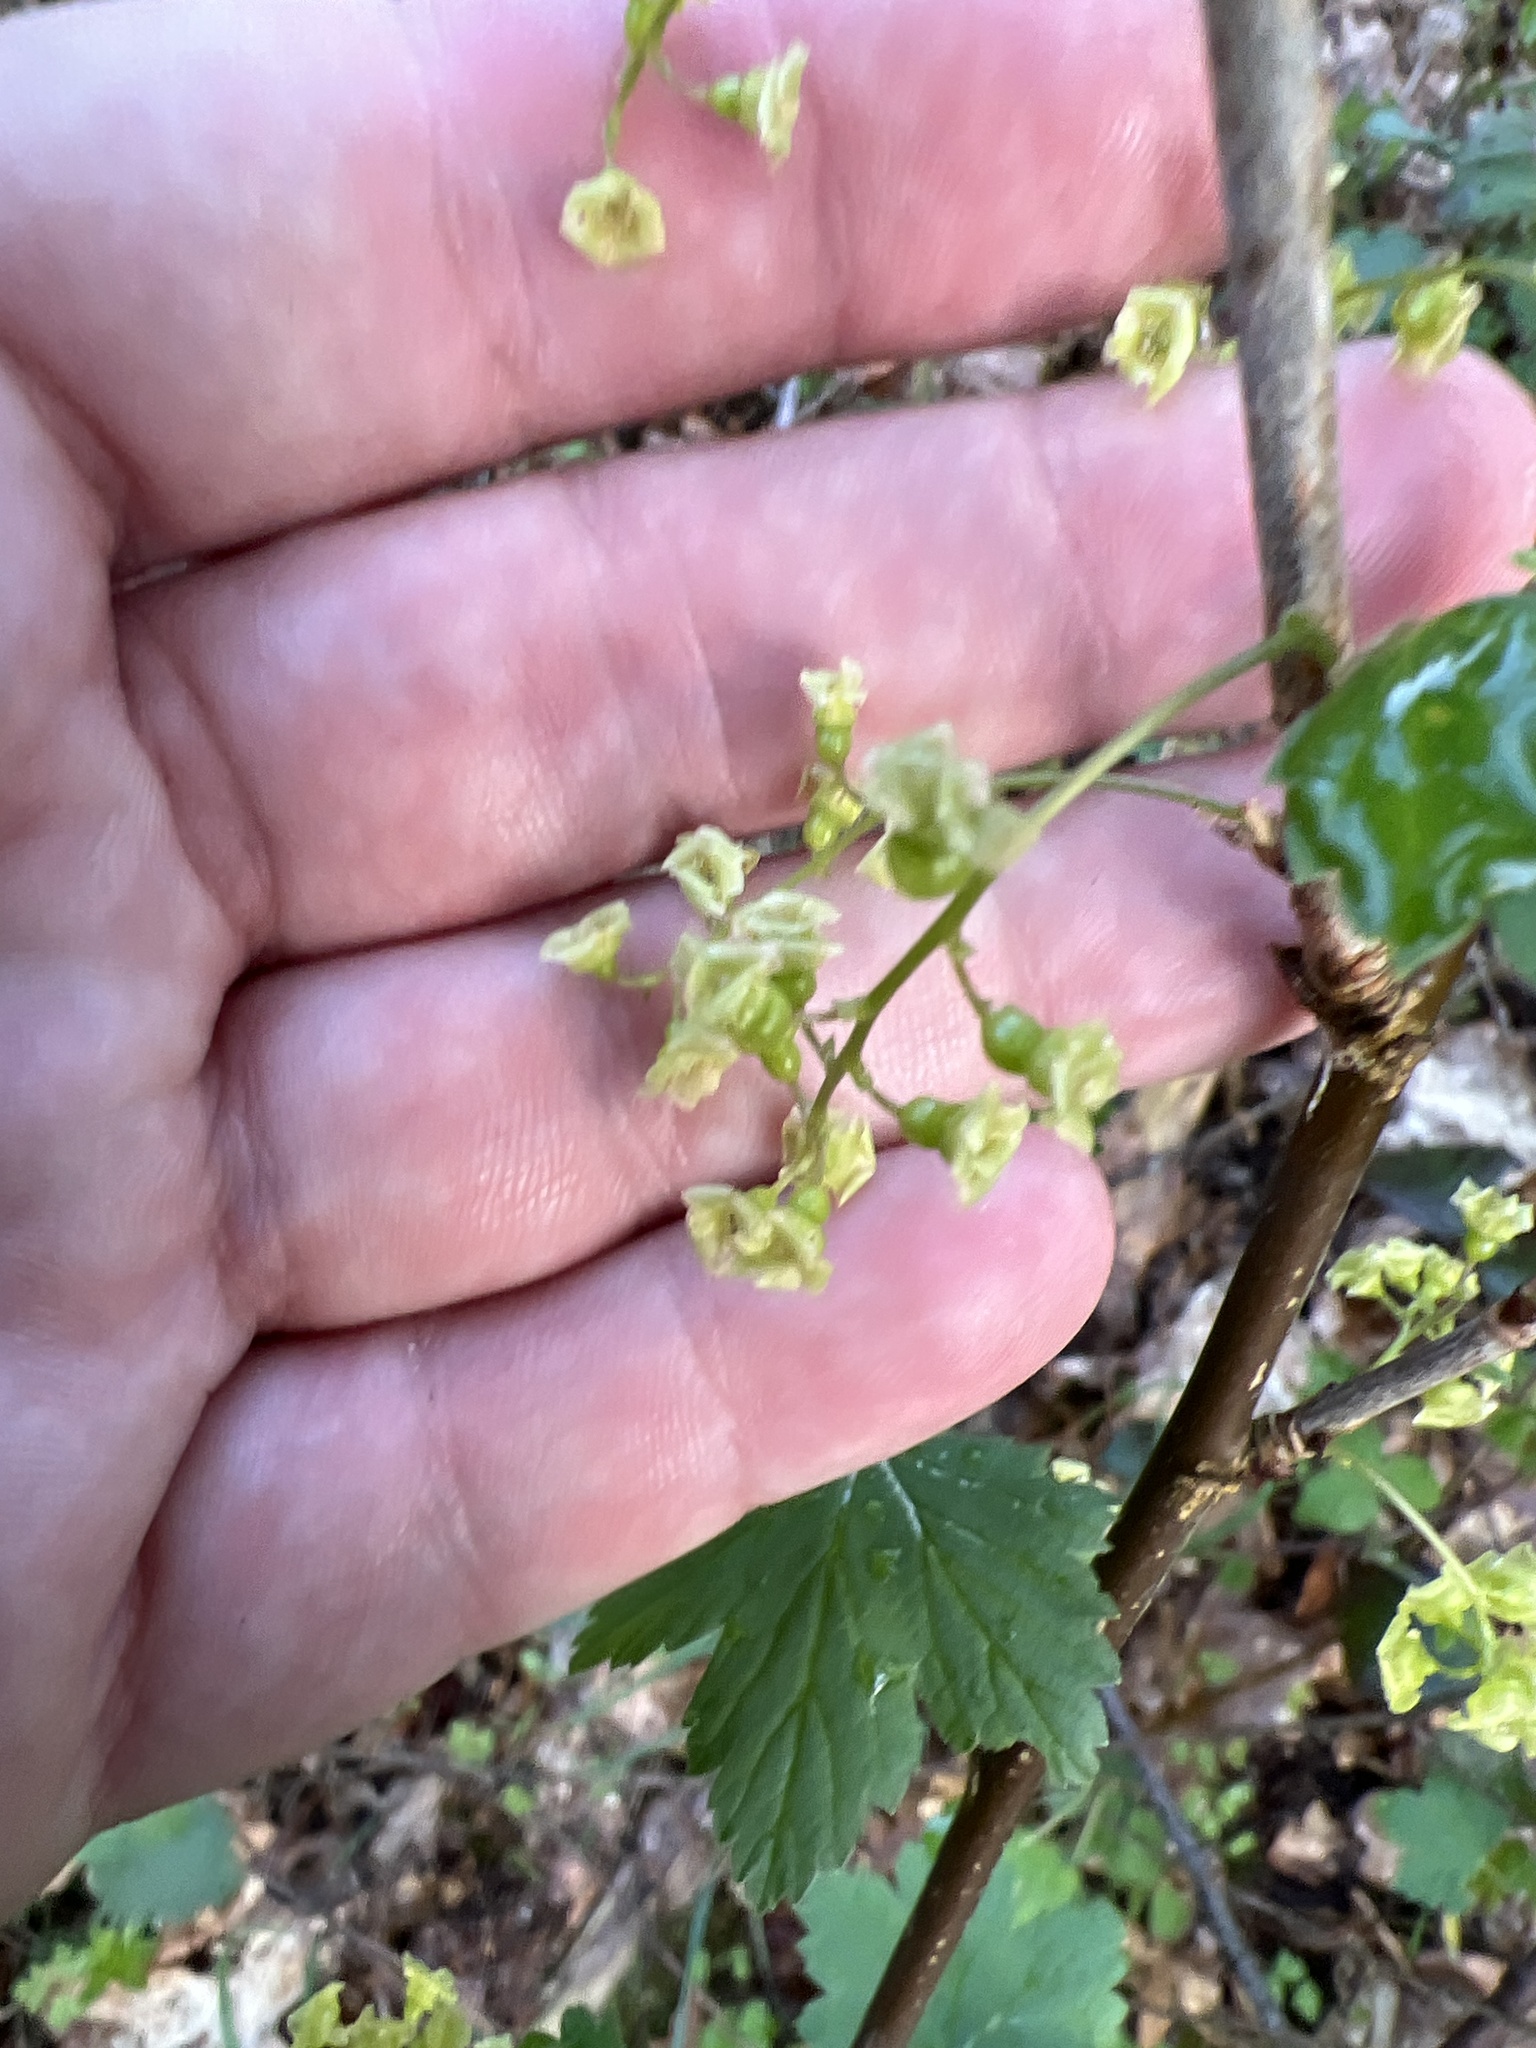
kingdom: Plantae
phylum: Tracheophyta
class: Magnoliopsida
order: Saxifragales
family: Grossulariaceae
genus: Ribes
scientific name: Ribes rubrum
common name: Red currant
